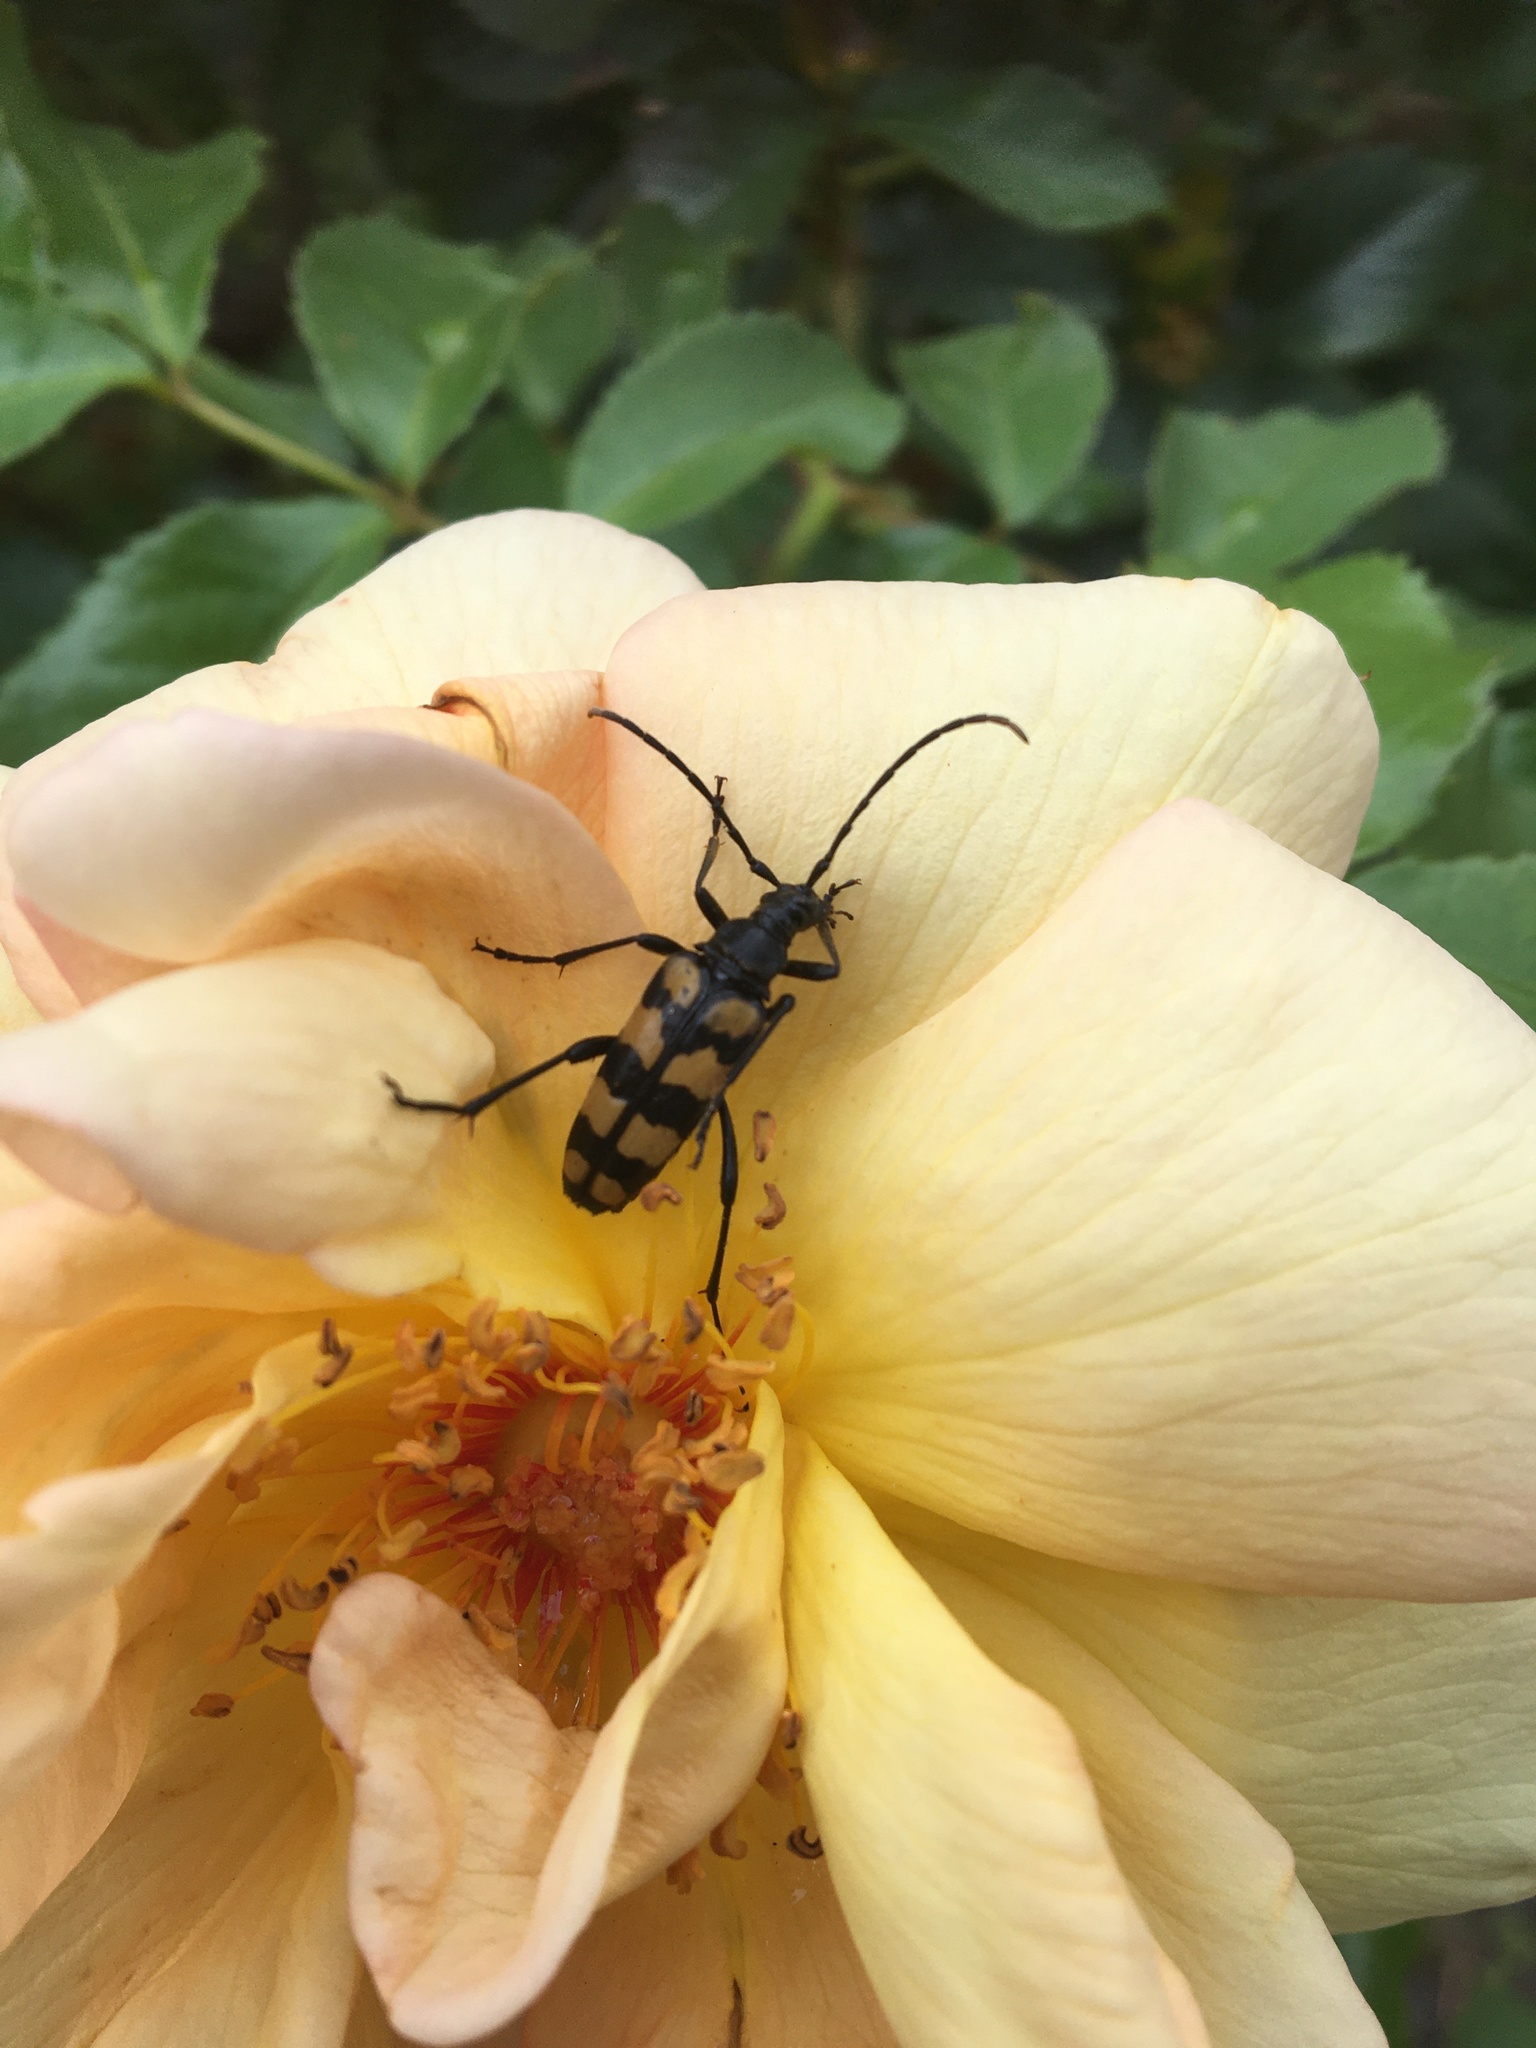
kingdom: Animalia
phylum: Arthropoda
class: Insecta
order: Coleoptera
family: Cerambycidae
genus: Leptura
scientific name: Leptura quadrifasciata
